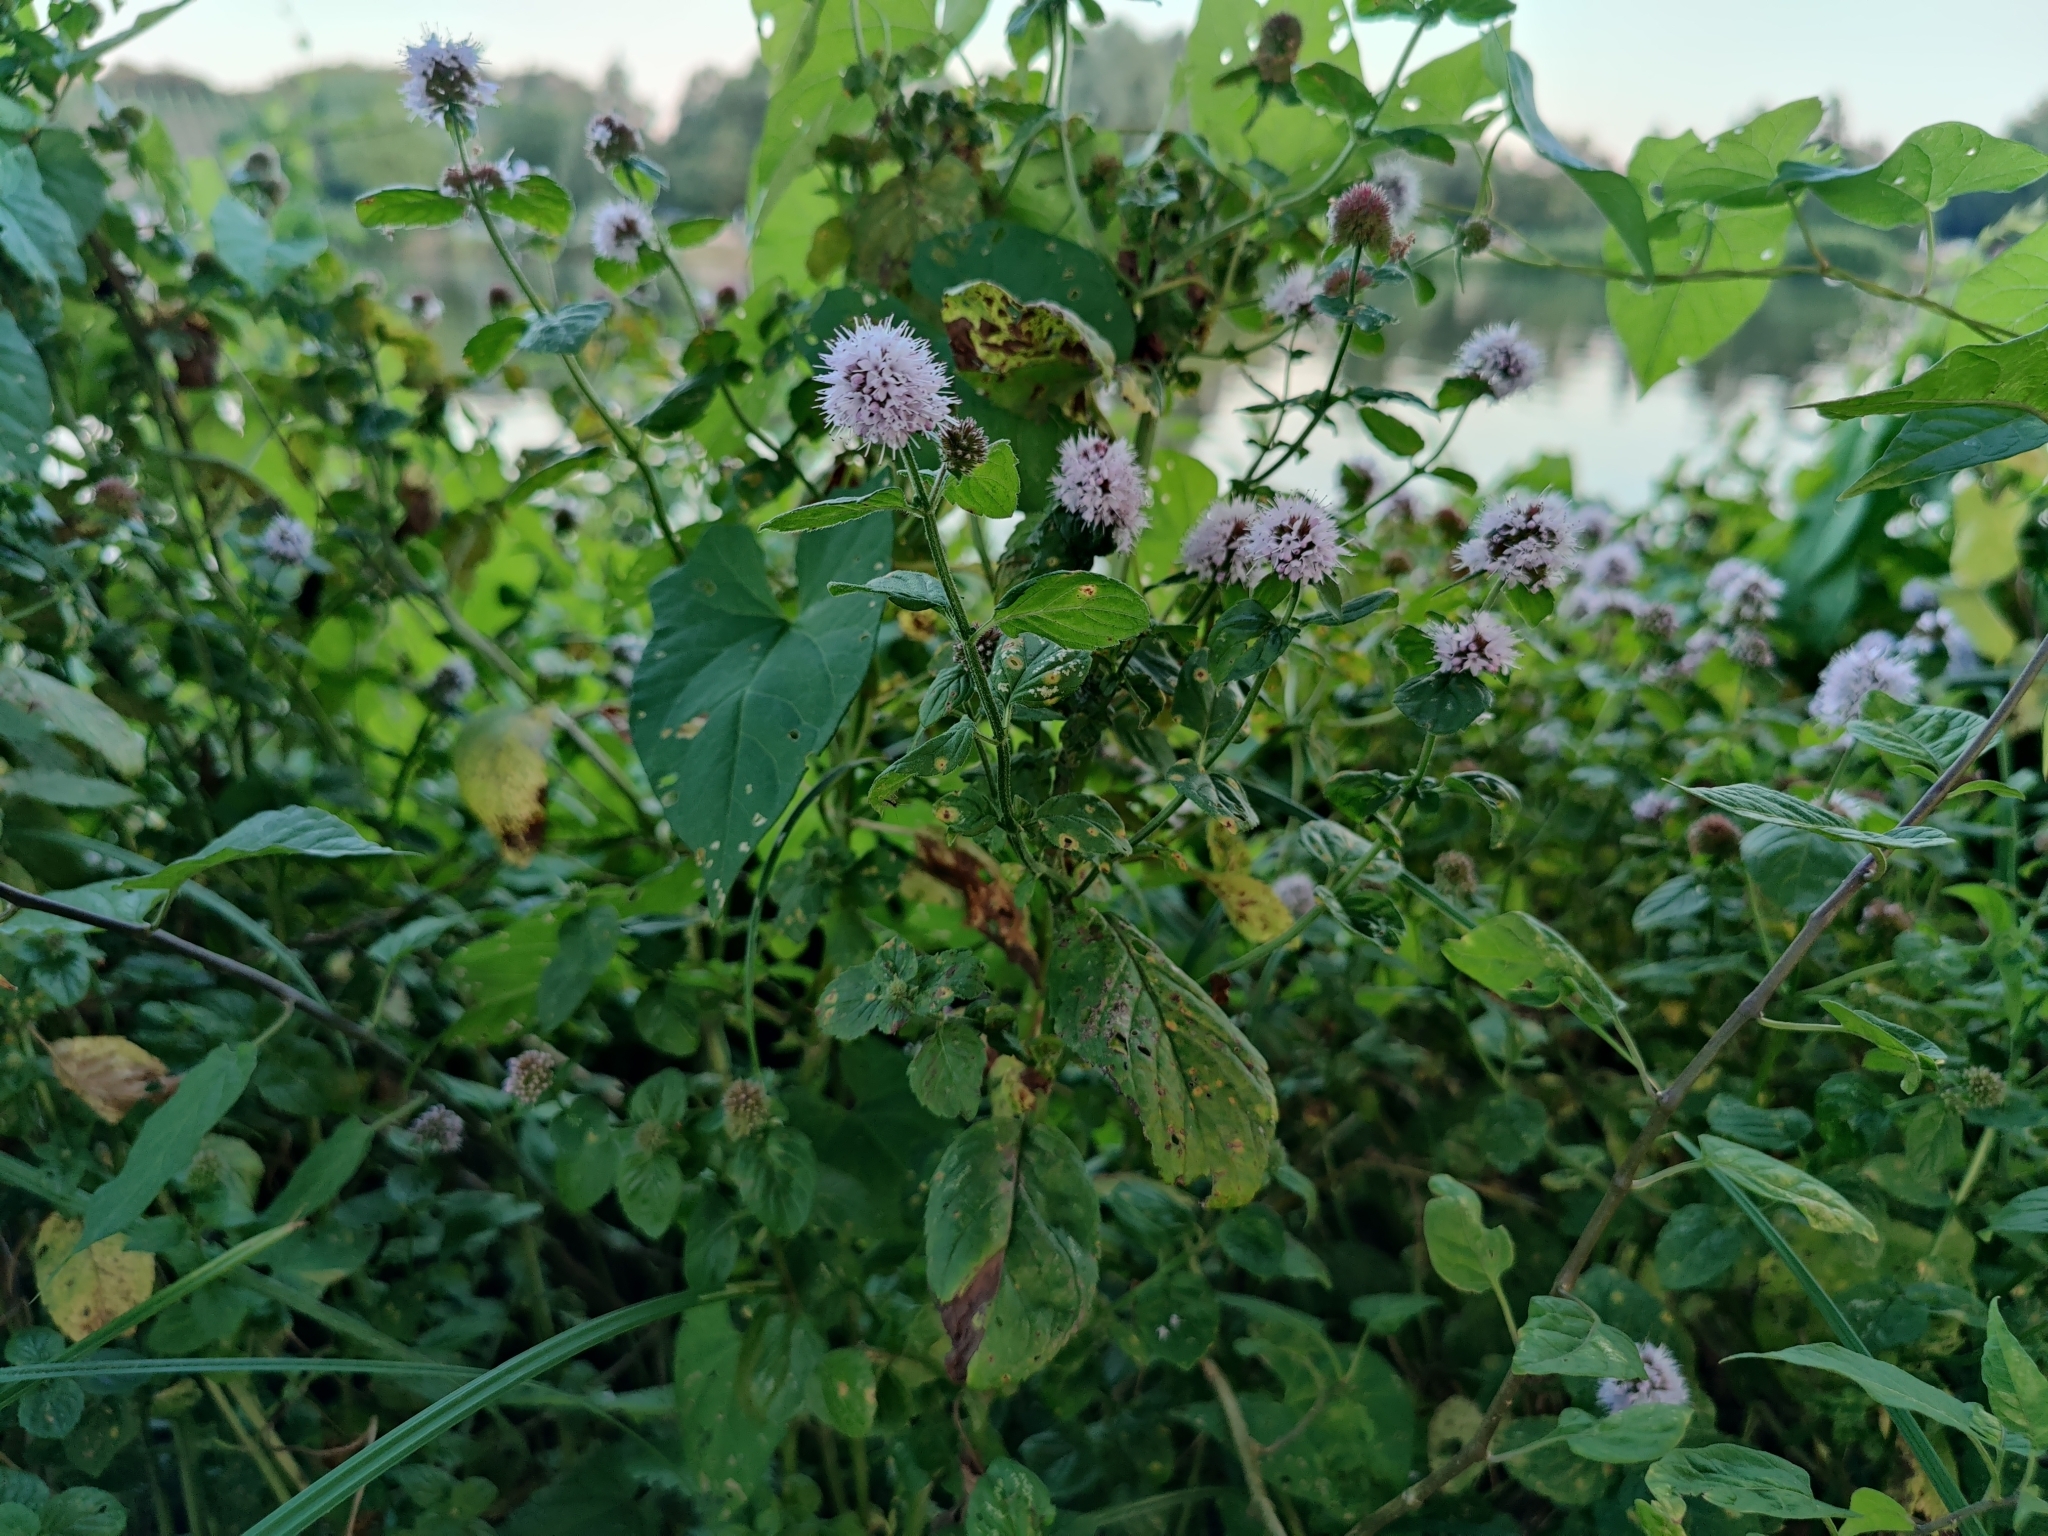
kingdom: Plantae
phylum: Tracheophyta
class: Magnoliopsida
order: Lamiales
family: Lamiaceae
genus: Mentha
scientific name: Mentha aquatica
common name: Water mint
